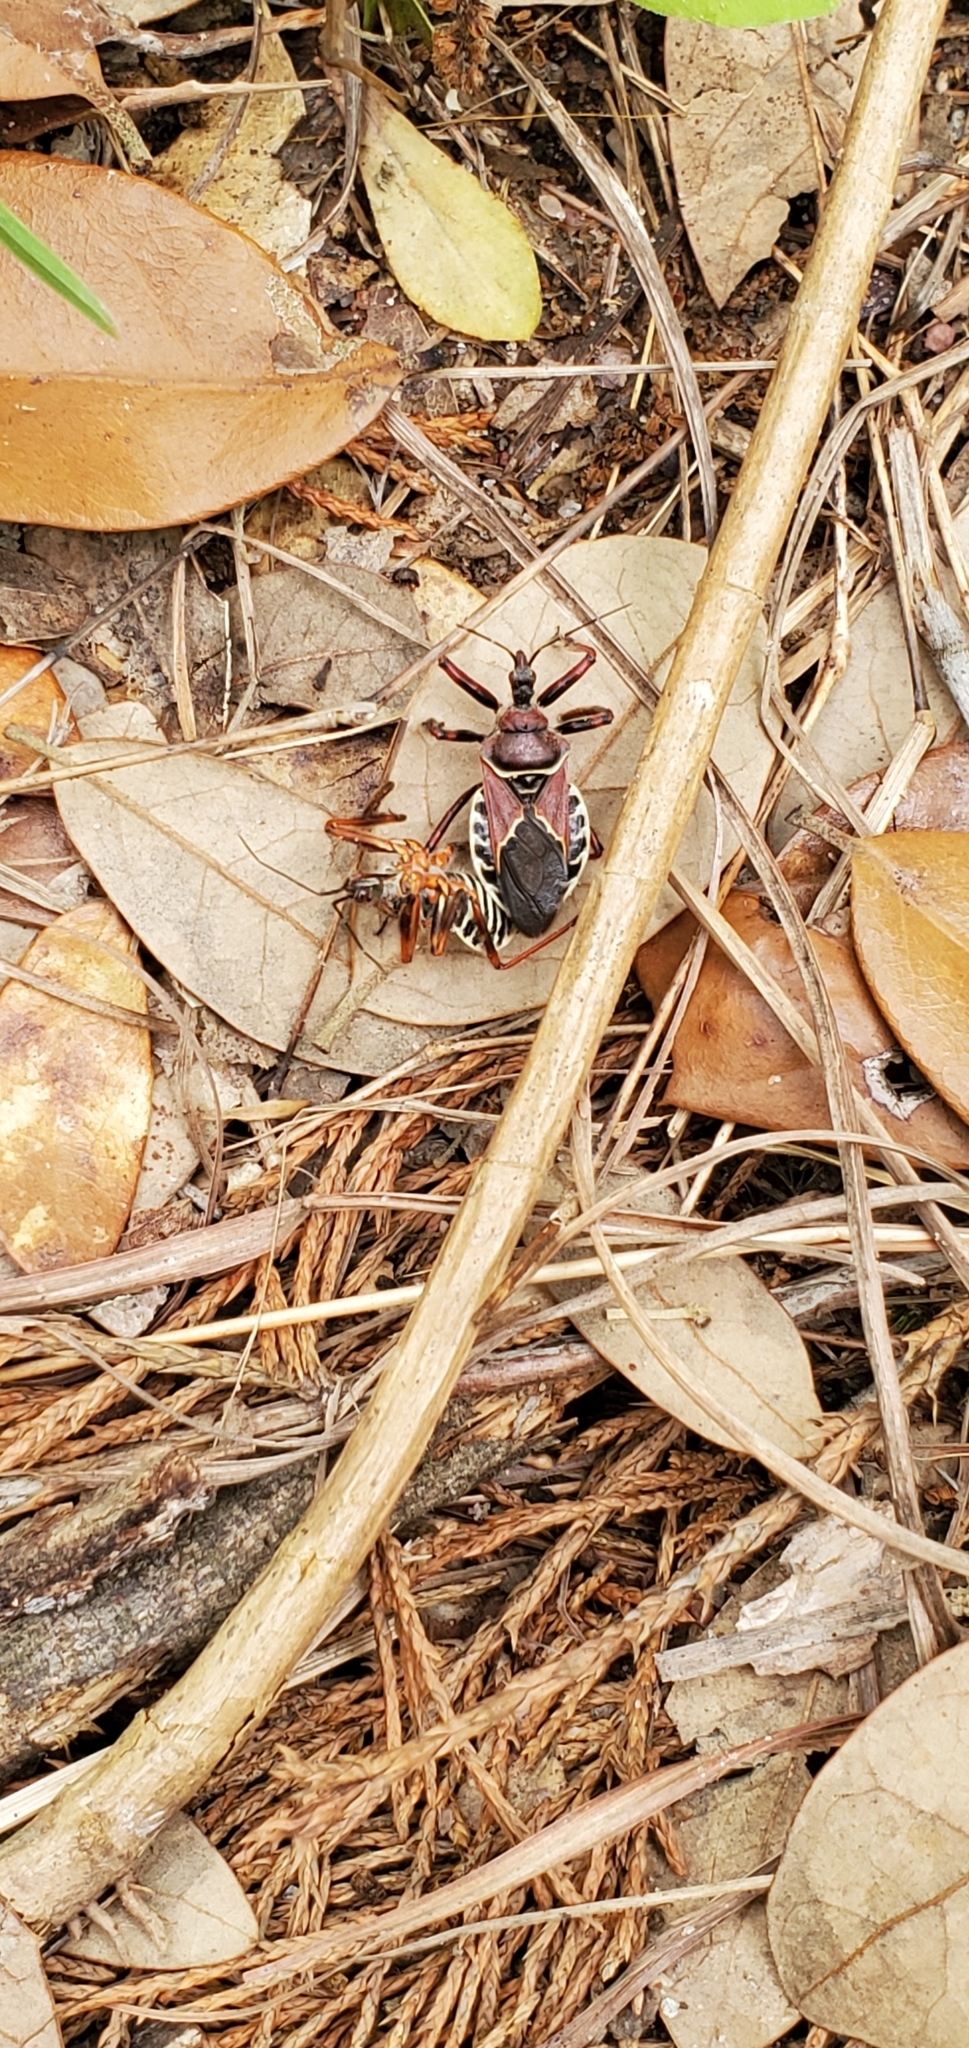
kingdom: Animalia
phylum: Arthropoda
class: Insecta
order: Hemiptera
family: Reduviidae
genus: Apiomerus
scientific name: Apiomerus spissipes
